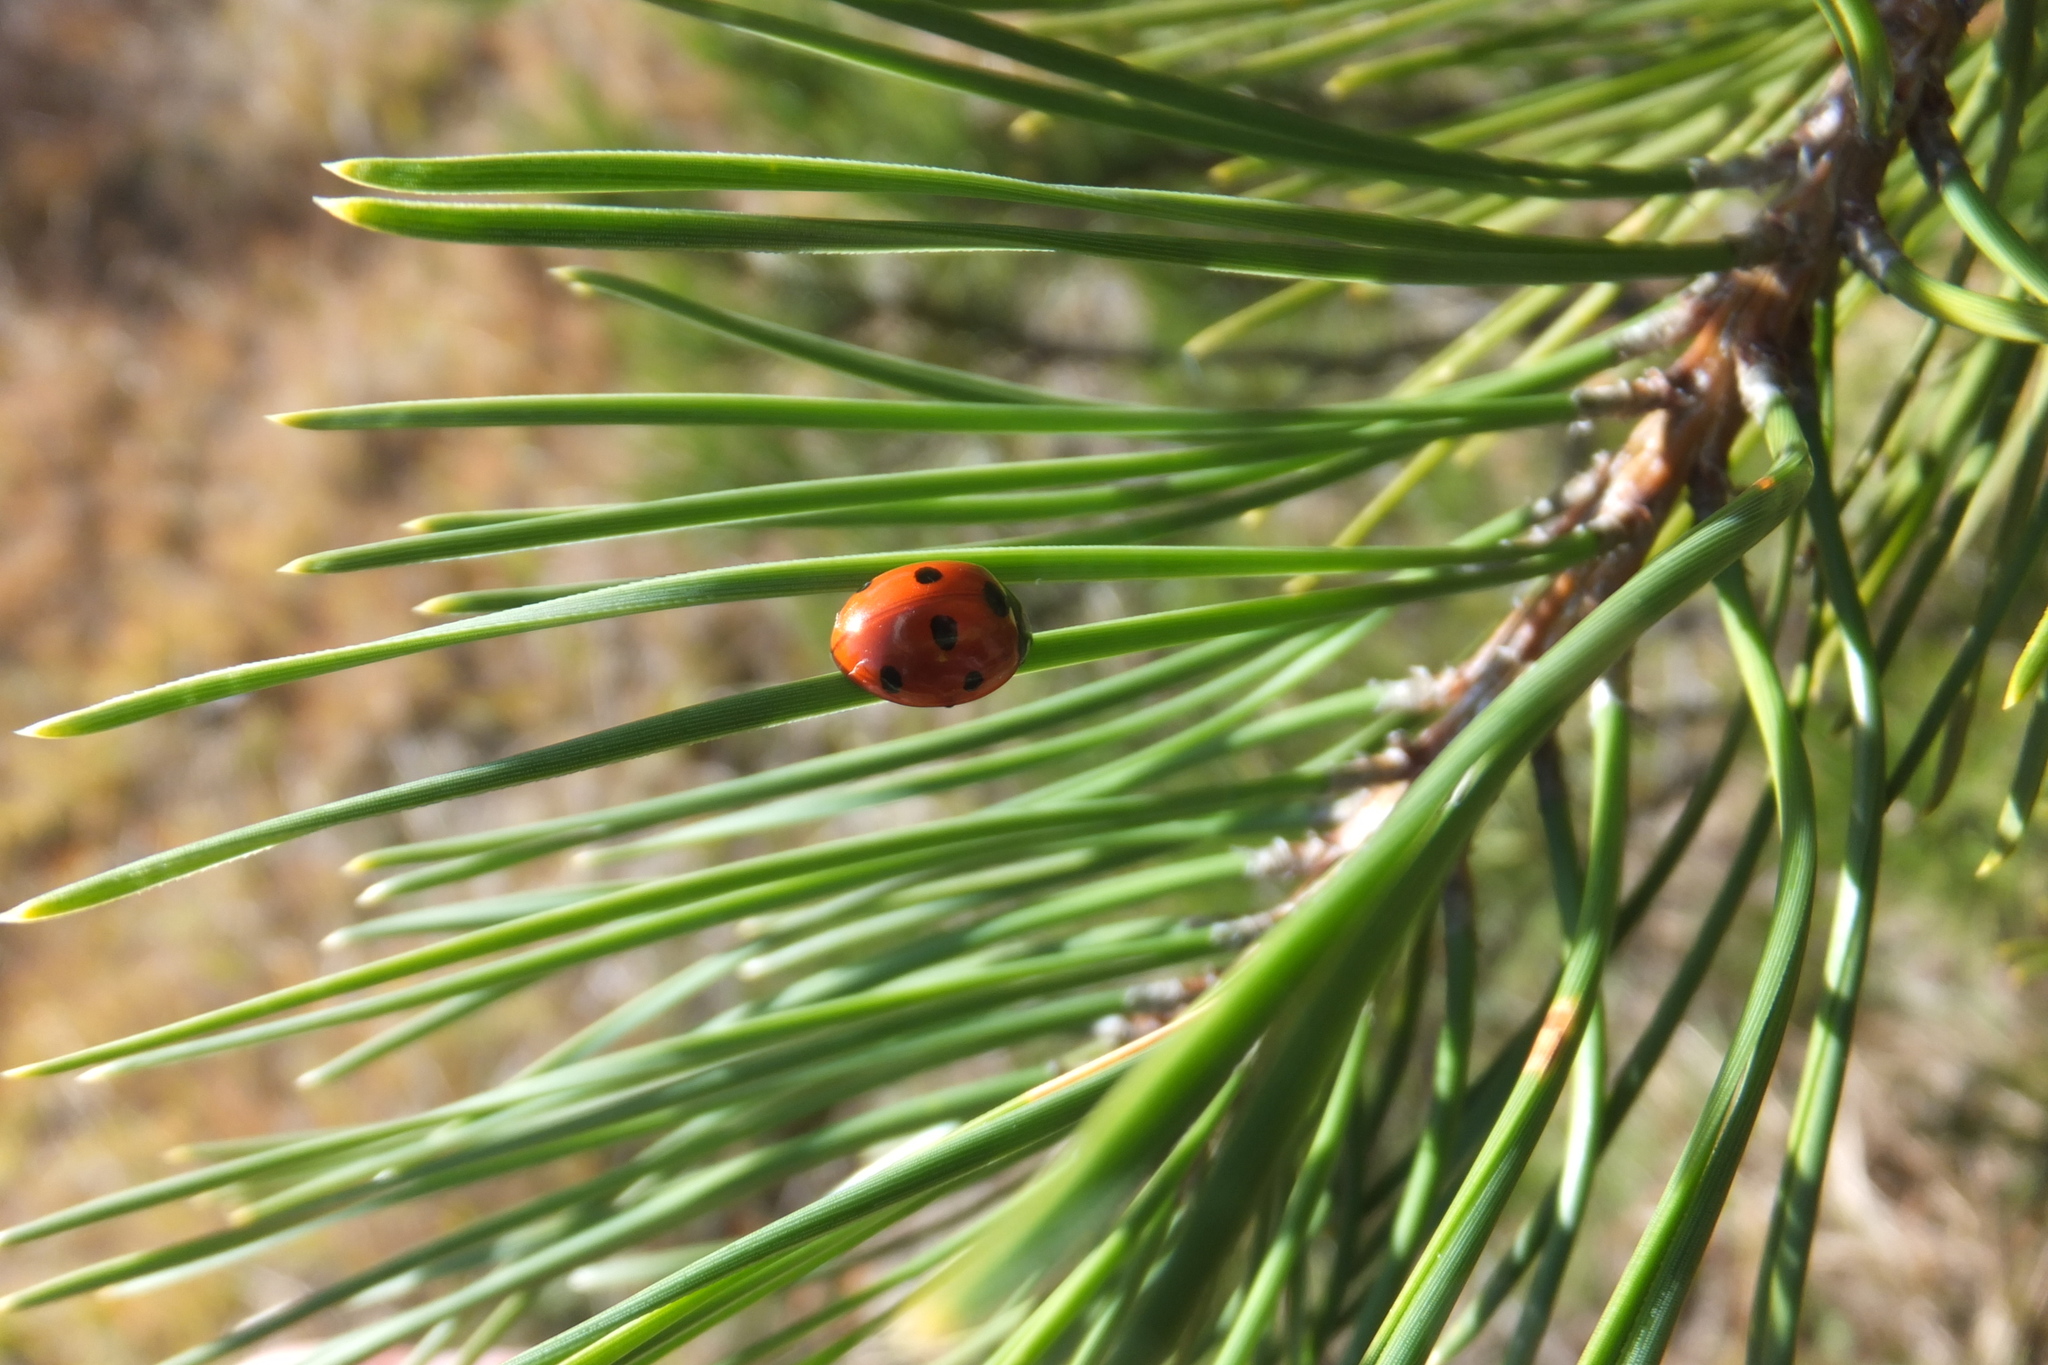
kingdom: Animalia
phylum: Arthropoda
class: Insecta
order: Coleoptera
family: Coccinellidae
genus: Coccinella
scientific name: Coccinella septempunctata
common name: Sevenspotted lady beetle
